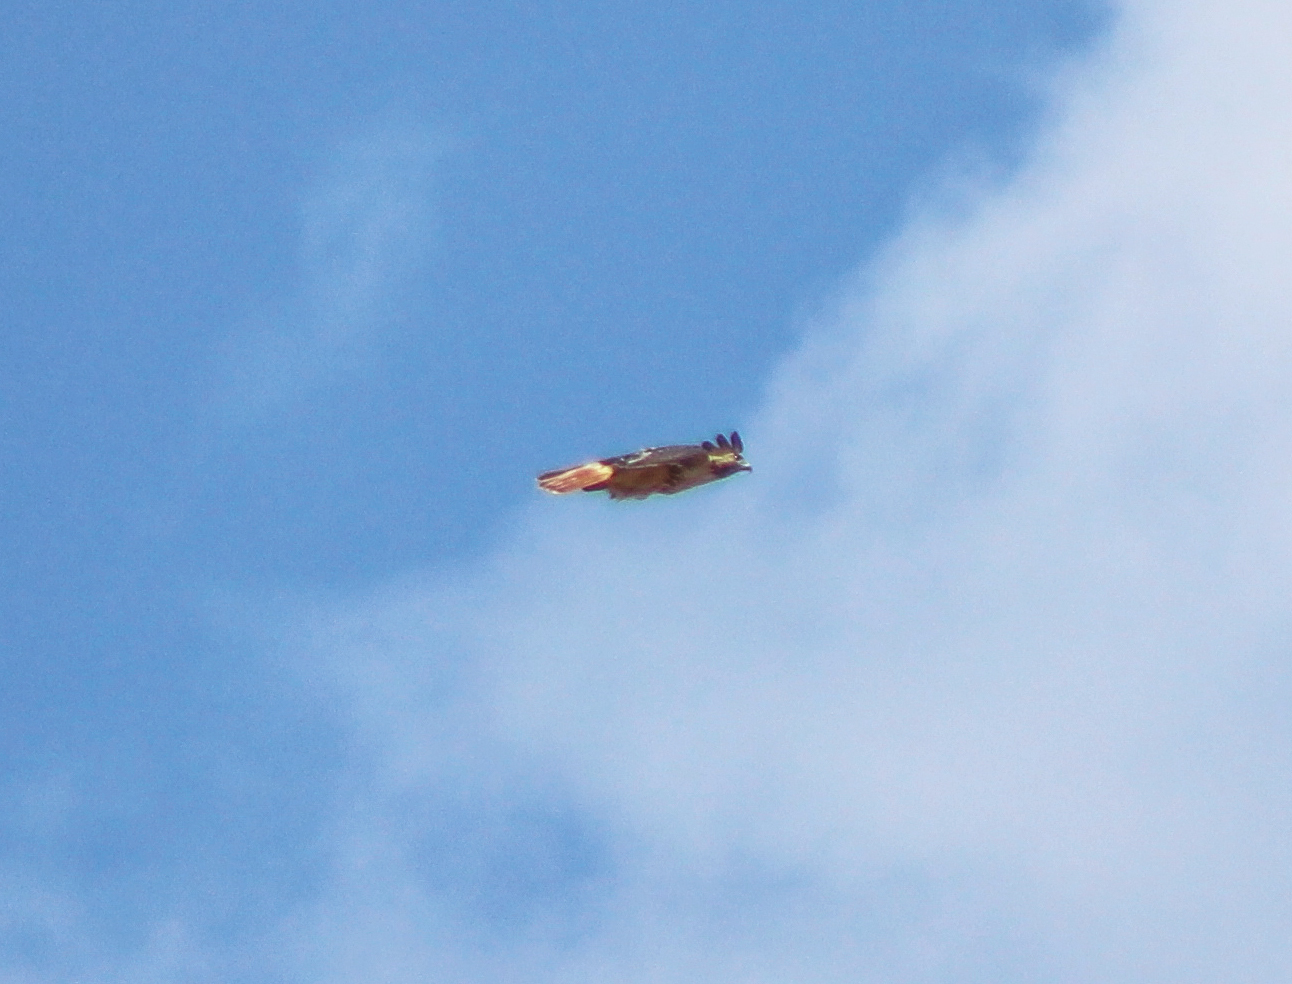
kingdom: Animalia
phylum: Chordata
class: Aves
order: Accipitriformes
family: Accipitridae
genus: Buteo
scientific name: Buteo jamaicensis
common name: Red-tailed hawk
